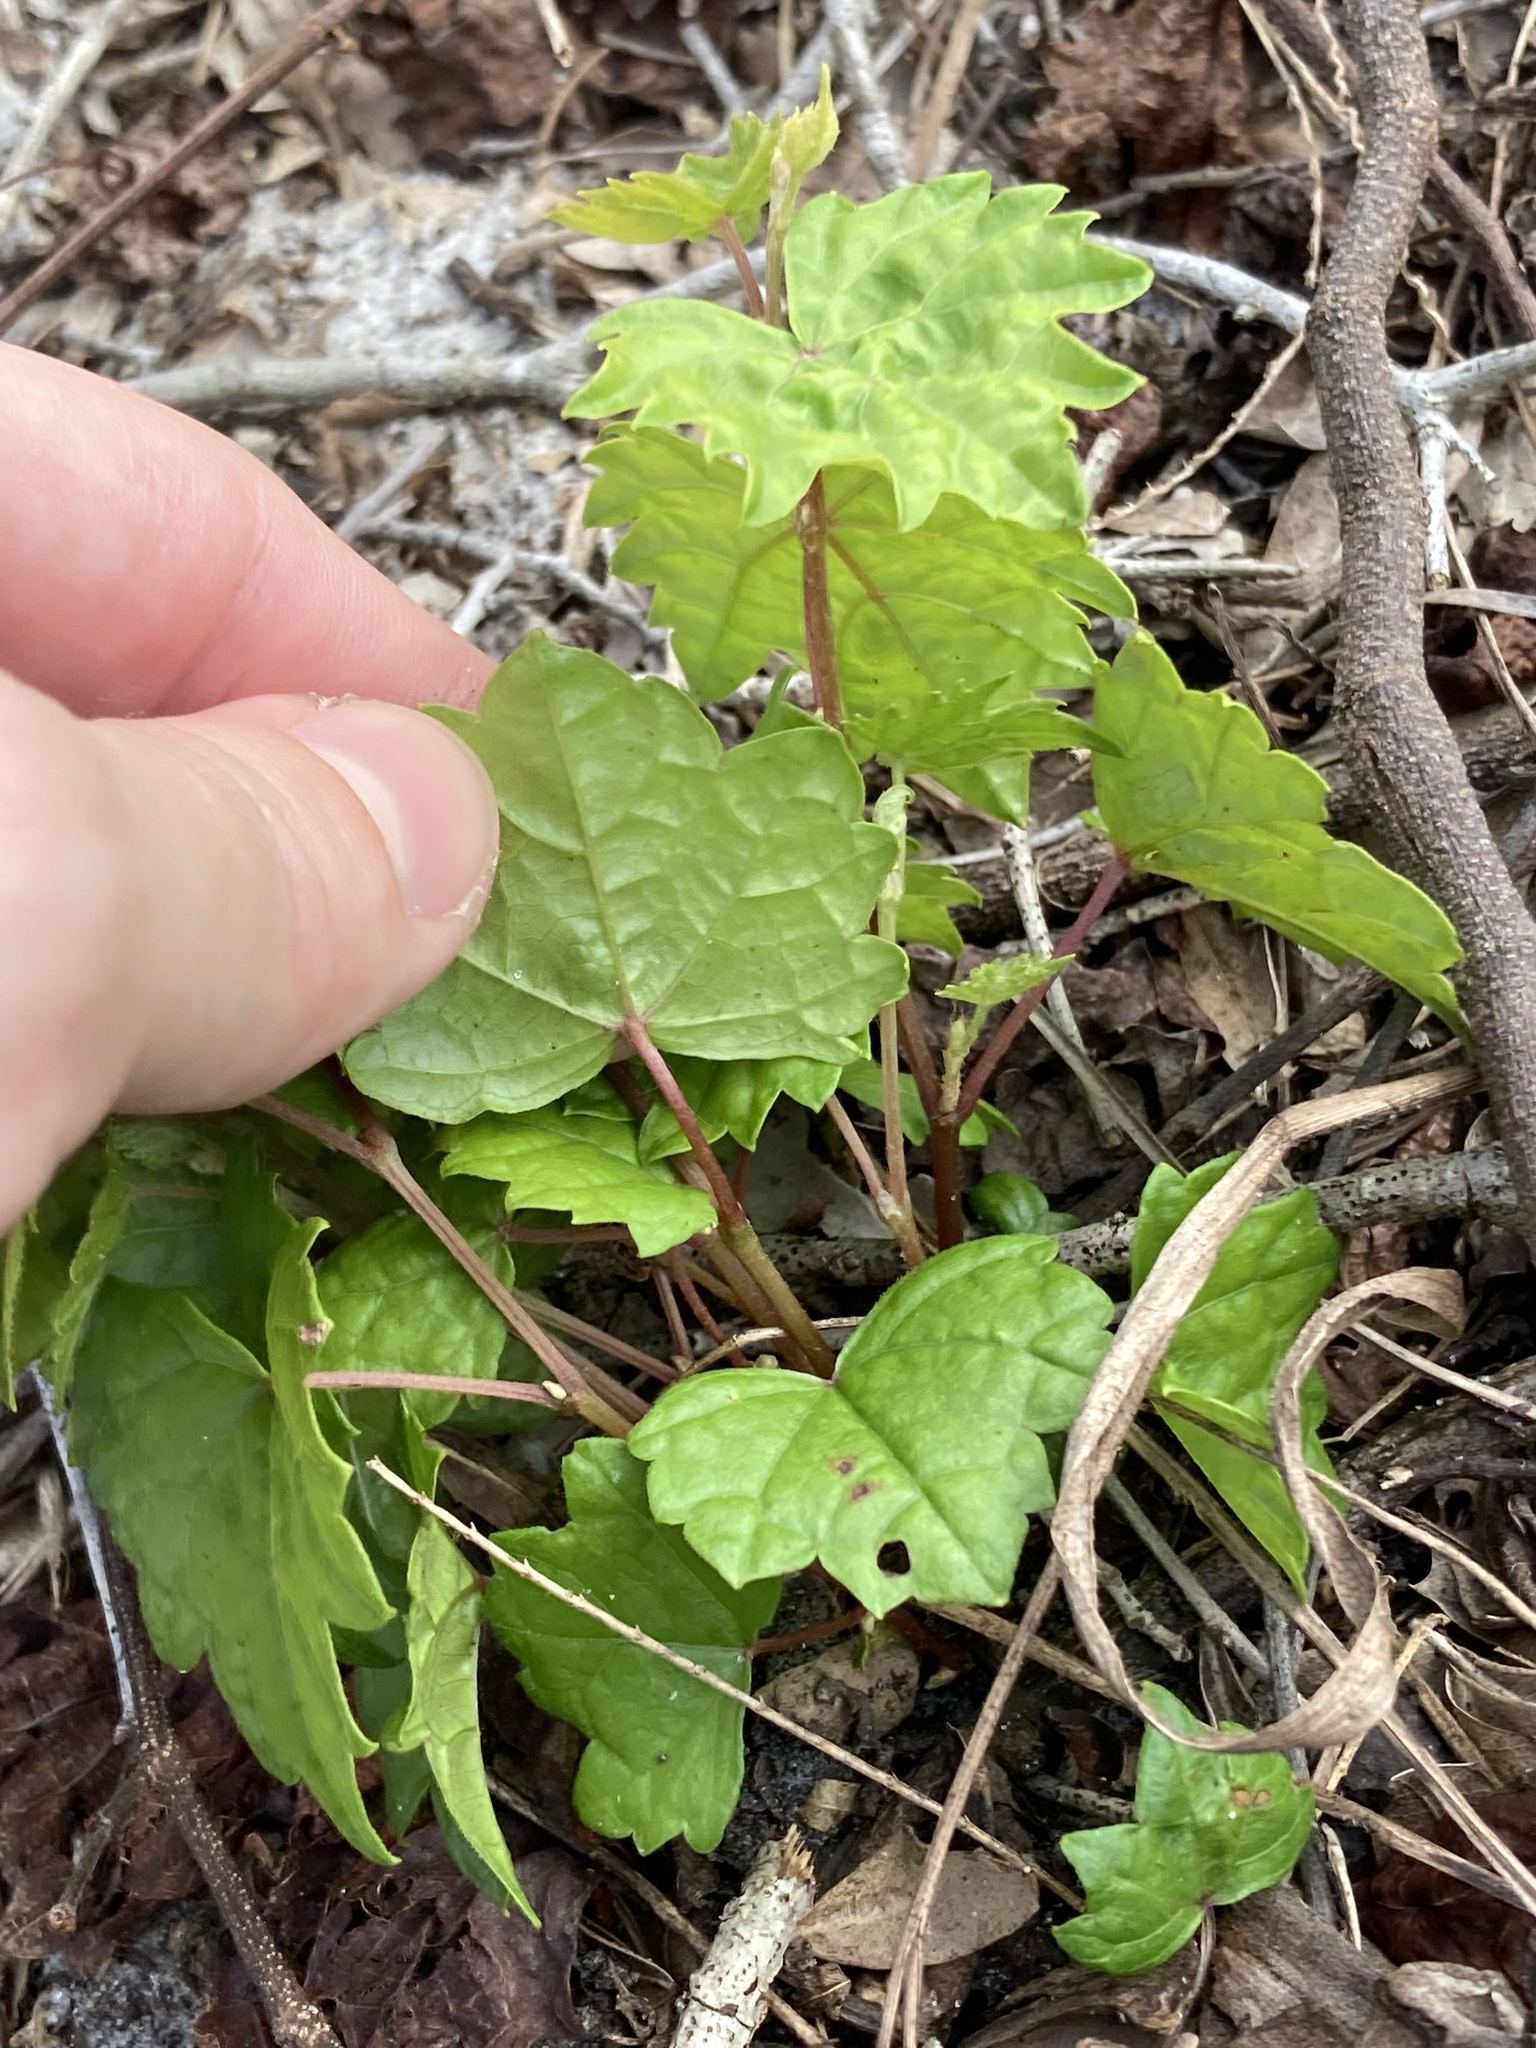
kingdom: Plantae
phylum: Tracheophyta
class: Magnoliopsida
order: Vitales
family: Vitaceae
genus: Vitis
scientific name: Vitis rotundifolia
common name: Muscadine grape
